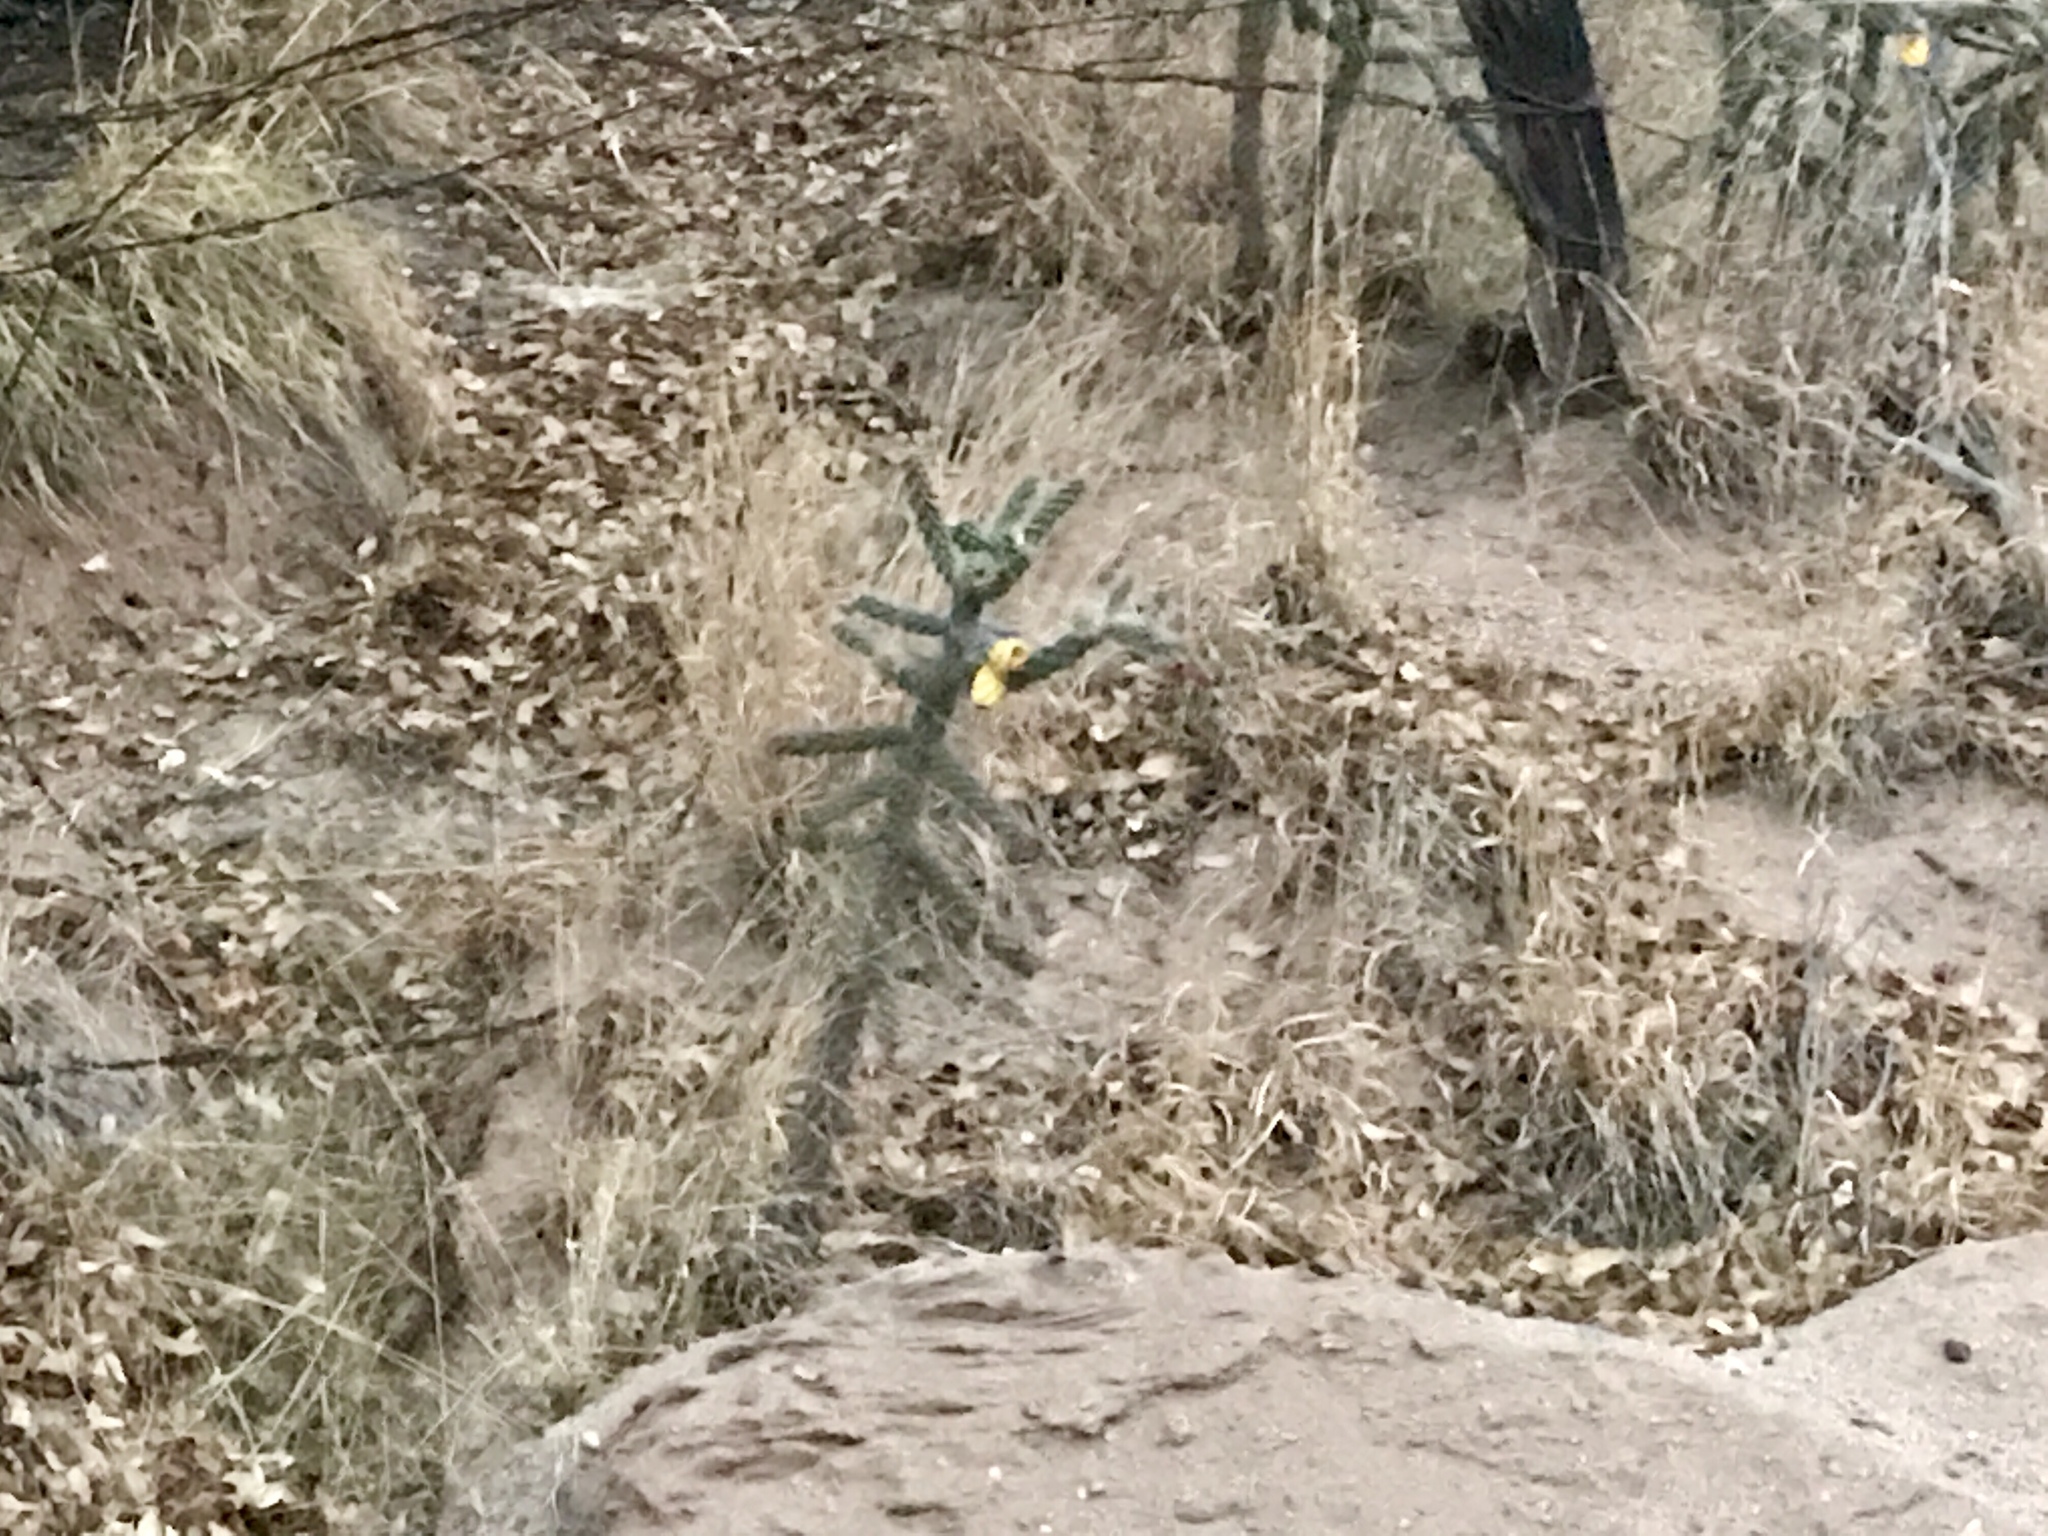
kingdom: Plantae
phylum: Tracheophyta
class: Magnoliopsida
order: Caryophyllales
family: Cactaceae
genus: Cylindropuntia
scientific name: Cylindropuntia imbricata
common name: Candelabrum cactus
